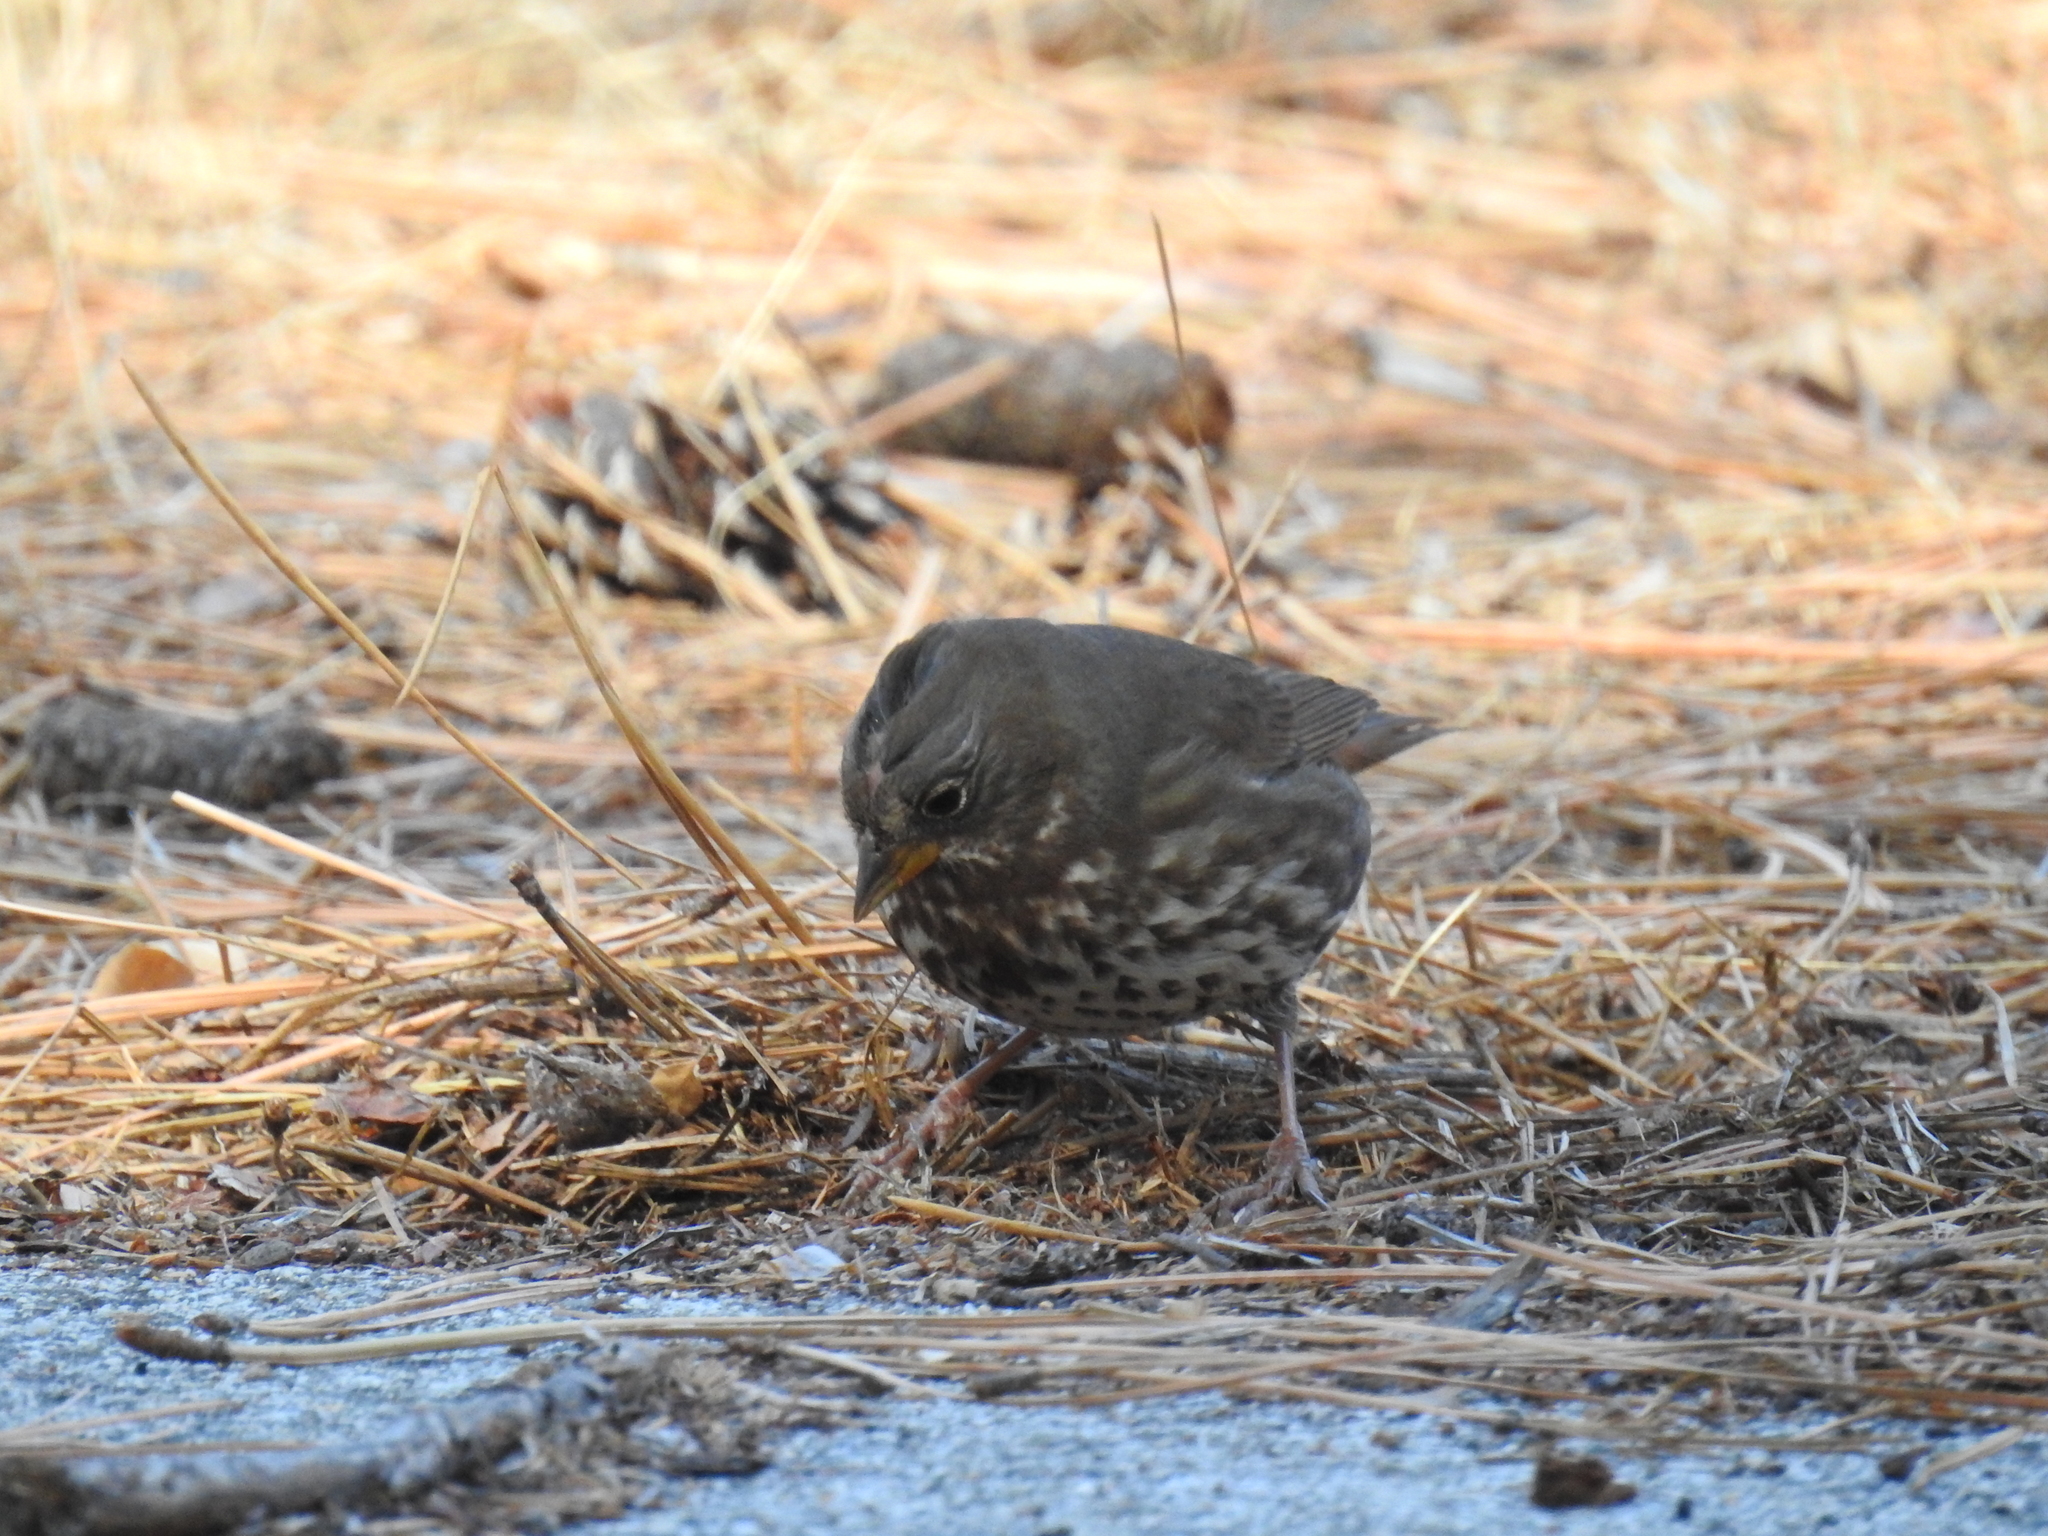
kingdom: Animalia
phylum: Chordata
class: Aves
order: Passeriformes
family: Passerellidae
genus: Passerella
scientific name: Passerella unalaschcensis
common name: Sooty fox sparrow
